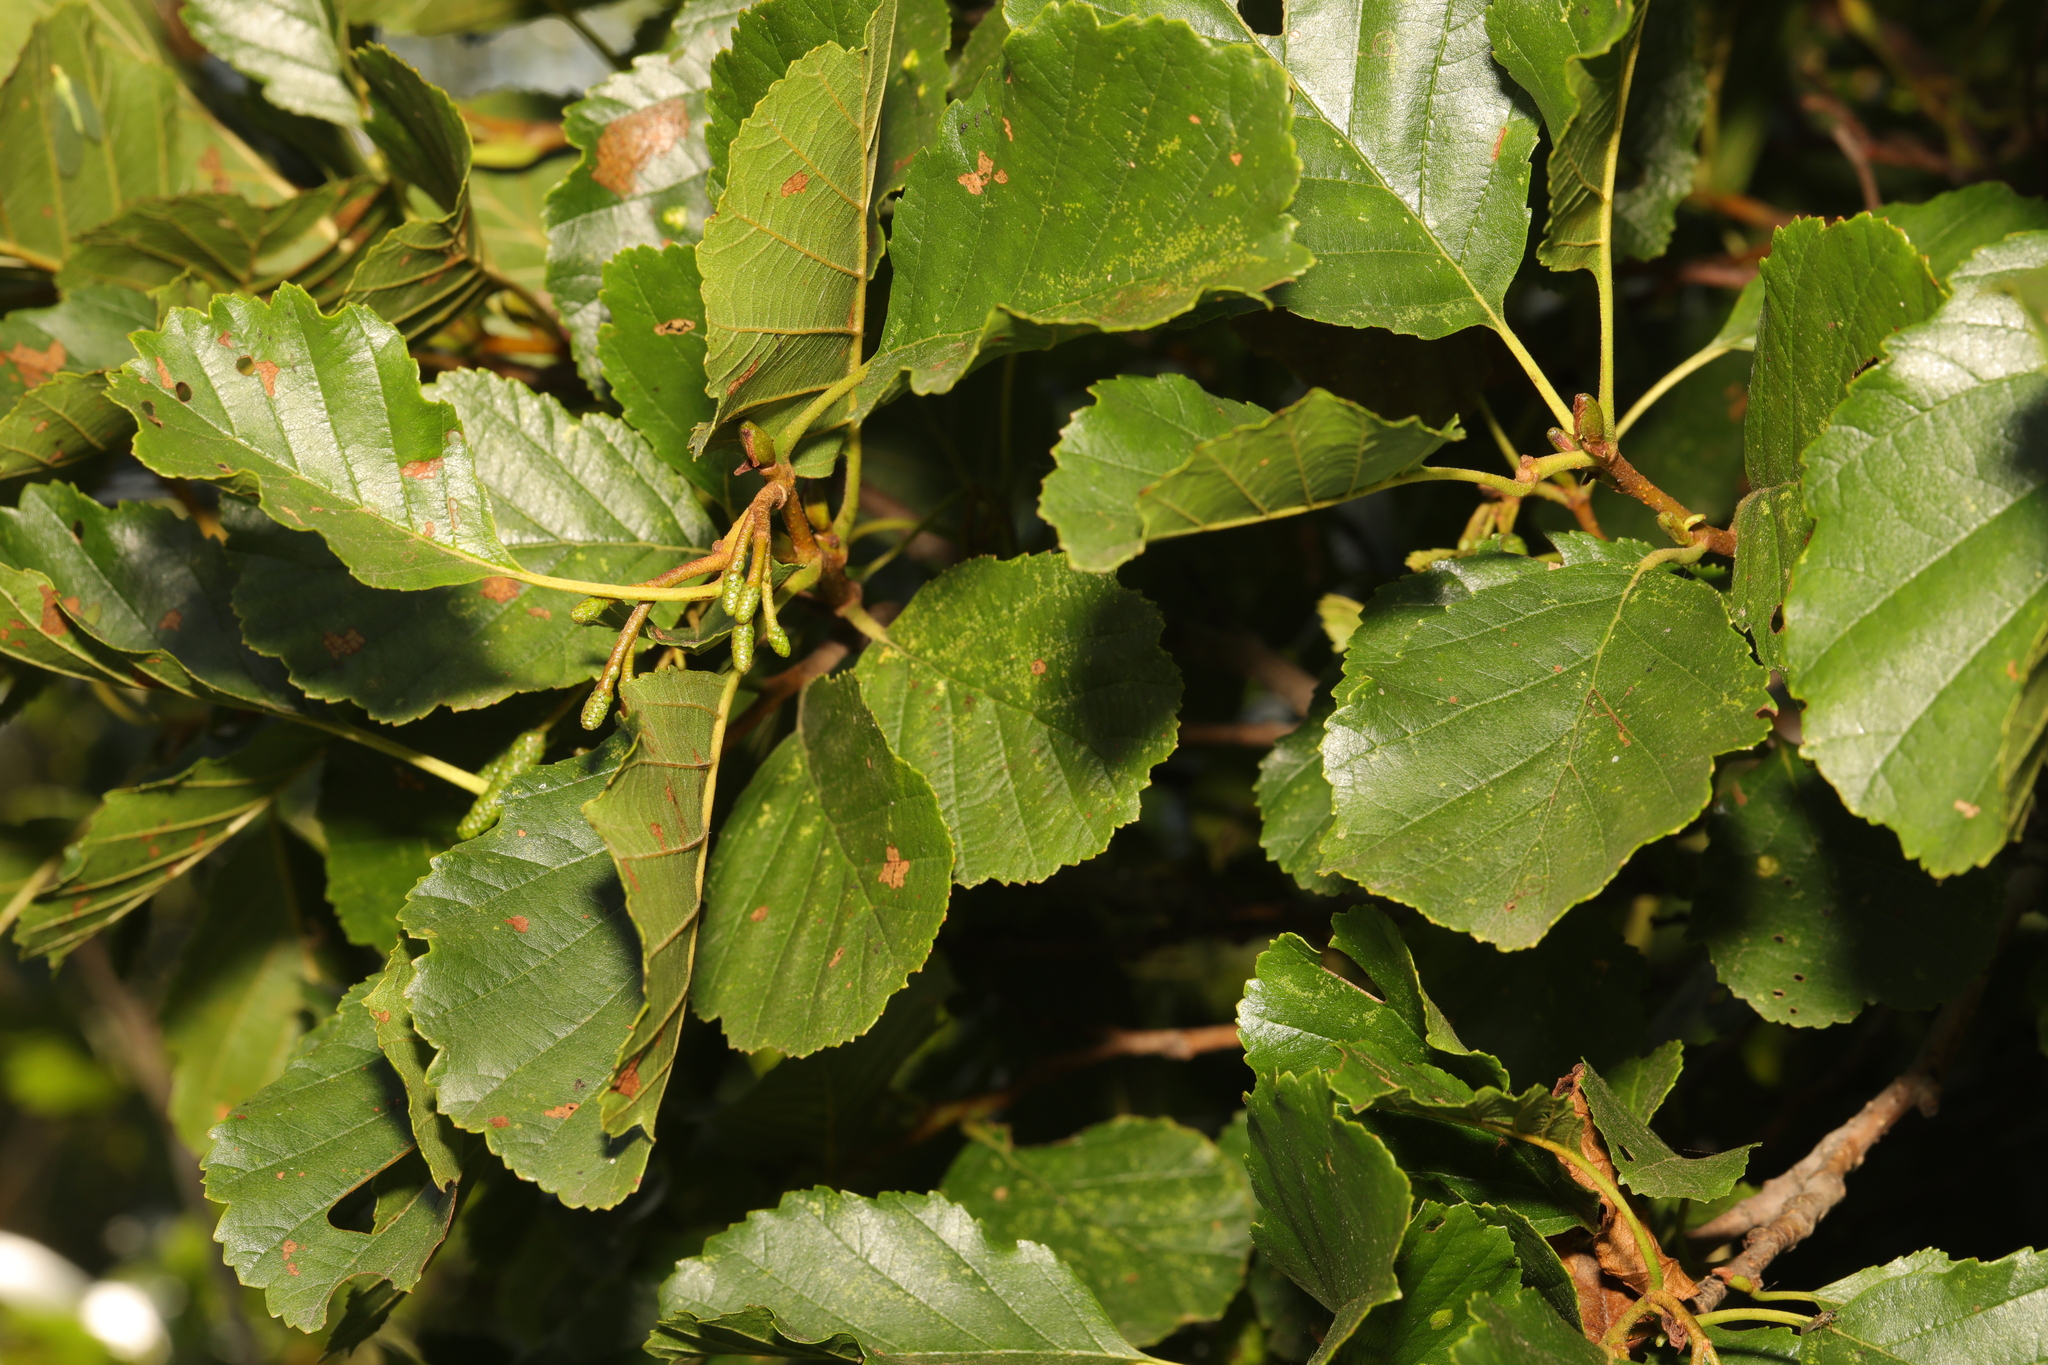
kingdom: Plantae
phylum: Tracheophyta
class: Magnoliopsida
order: Fagales
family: Betulaceae
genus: Alnus
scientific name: Alnus glutinosa
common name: Black alder
